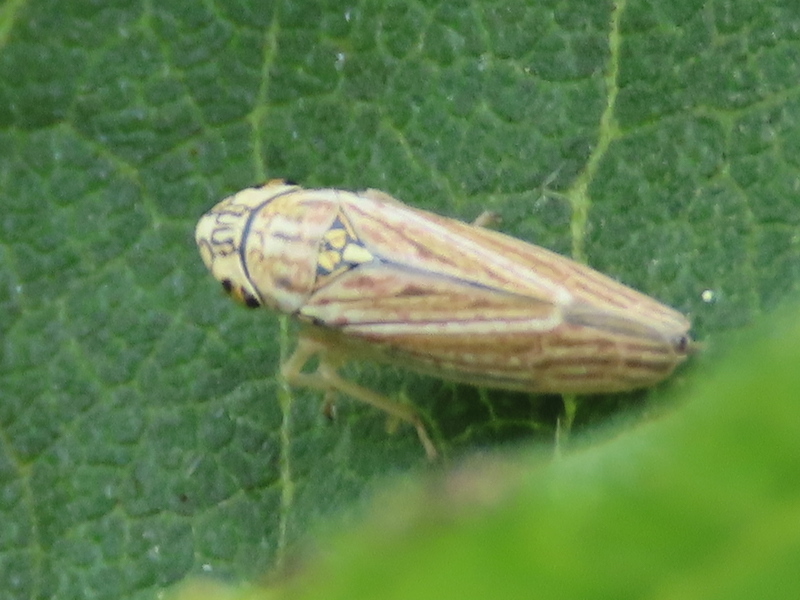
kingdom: Animalia
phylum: Arthropoda
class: Insecta
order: Hemiptera
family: Cicadellidae
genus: Neokolla
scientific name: Neokolla hieroglyphica
